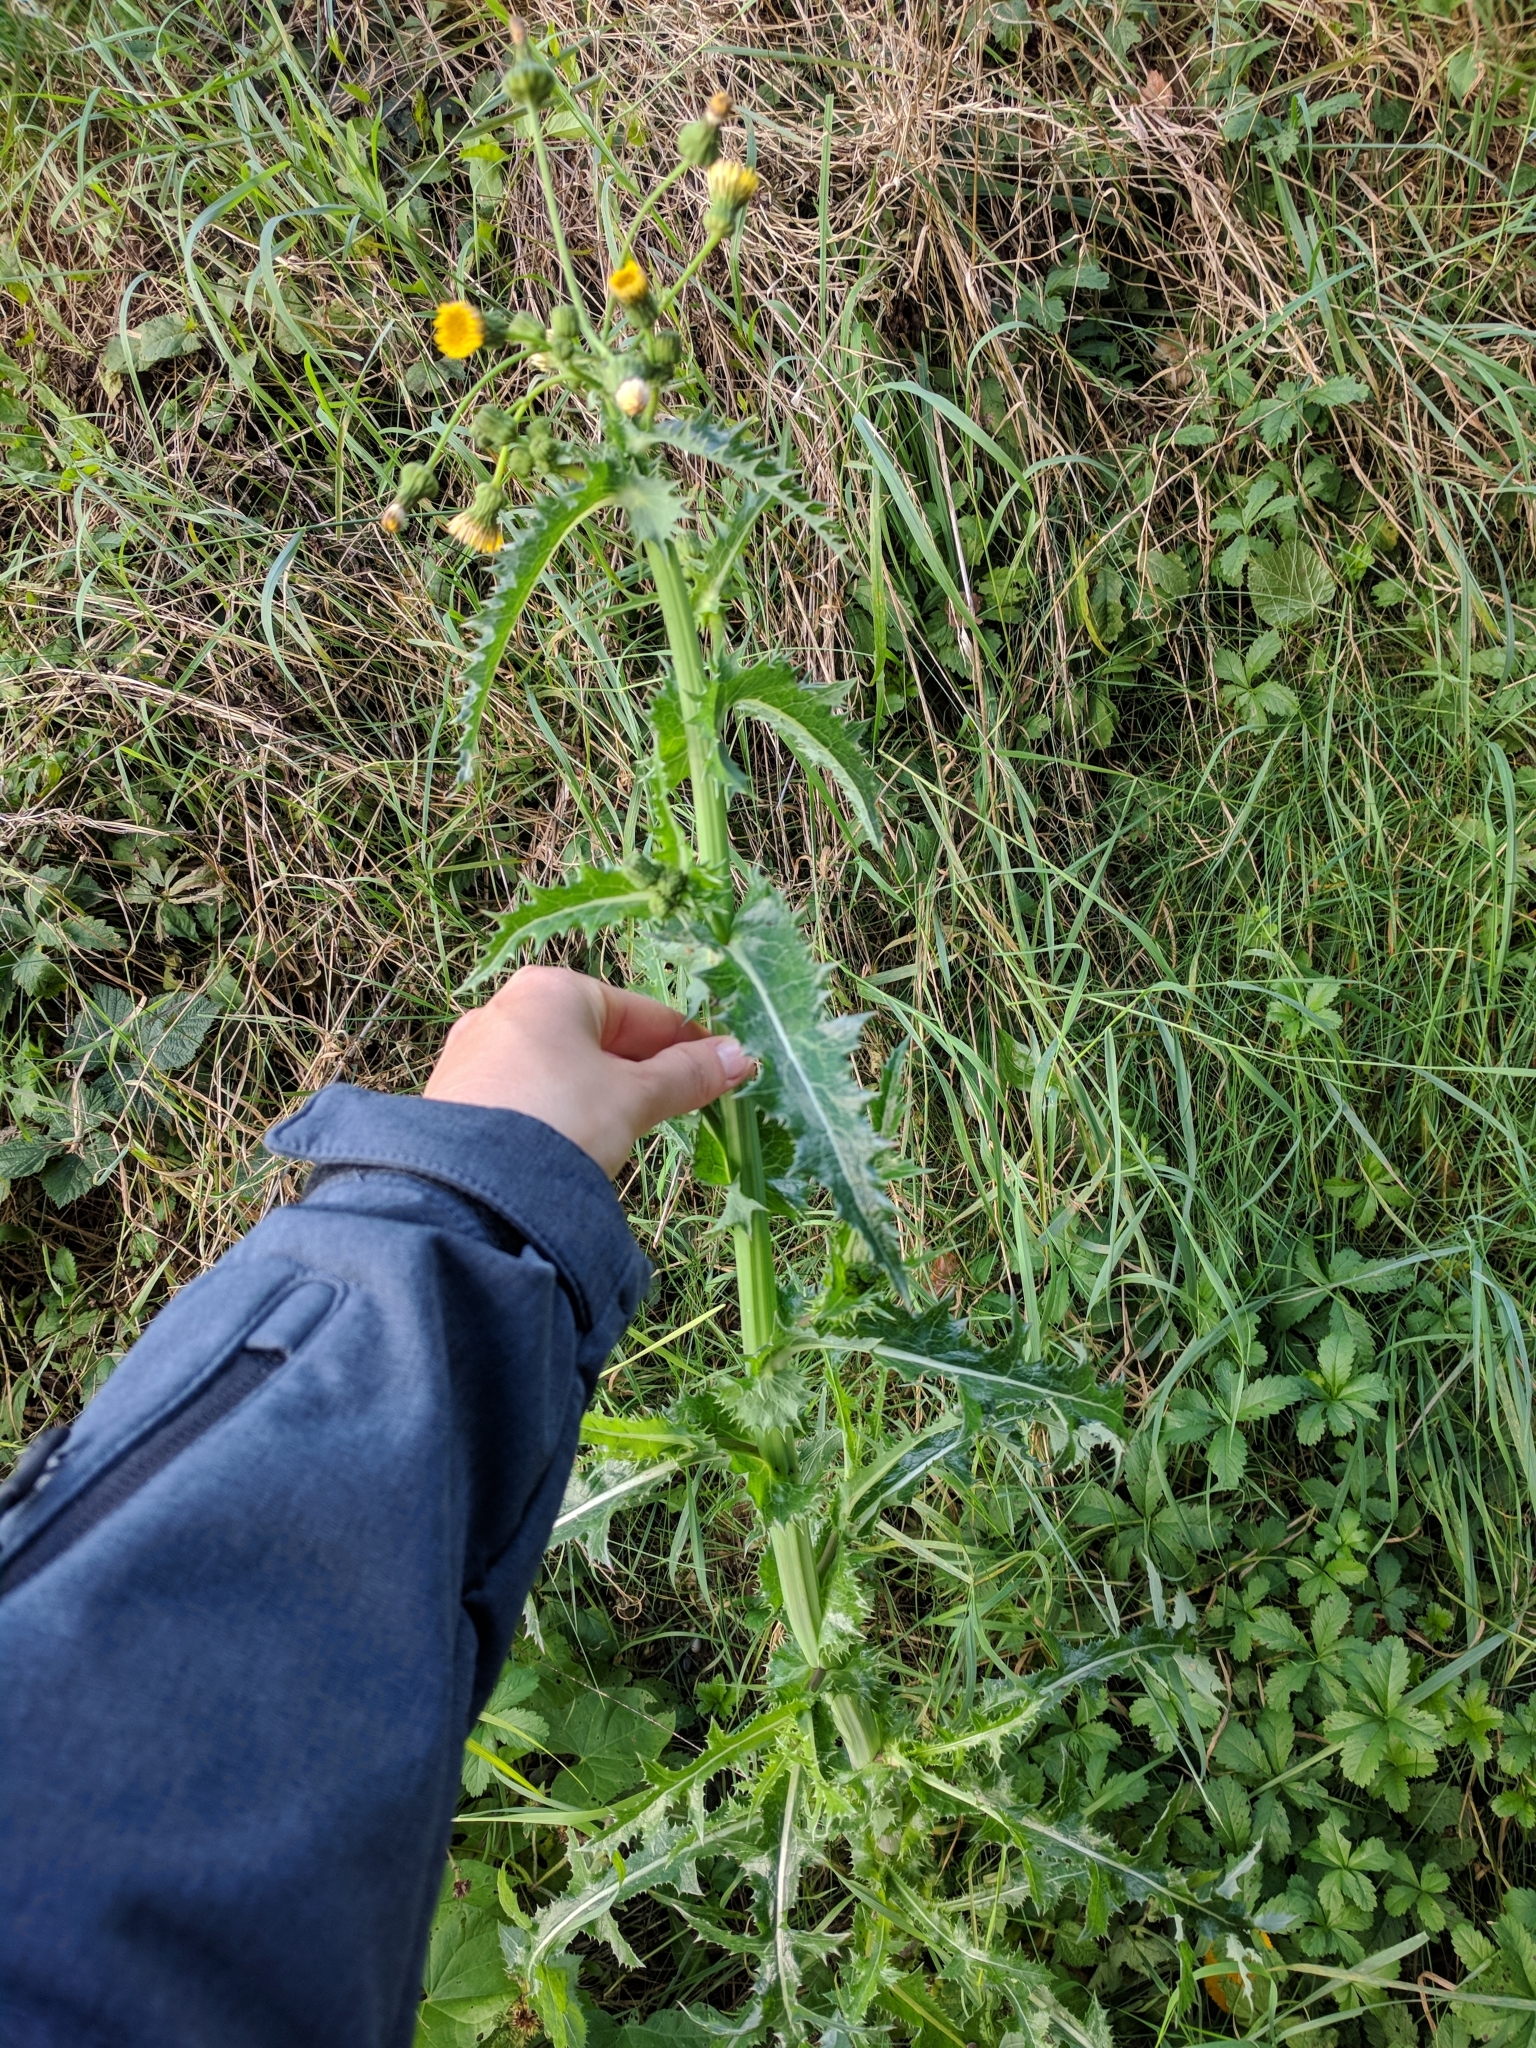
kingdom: Plantae
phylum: Tracheophyta
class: Magnoliopsida
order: Asterales
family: Asteraceae
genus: Sonchus
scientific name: Sonchus asper
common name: Prickly sow-thistle
